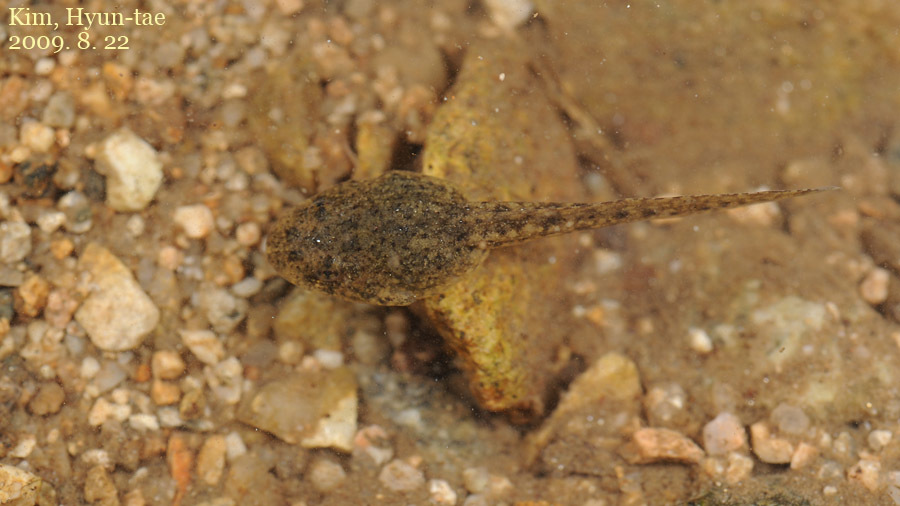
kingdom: Animalia
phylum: Chordata
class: Amphibia
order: Anura
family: Ranidae
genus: Glandirana
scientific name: Glandirana emeljanovi
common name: Northeast china rough-skinned frog
